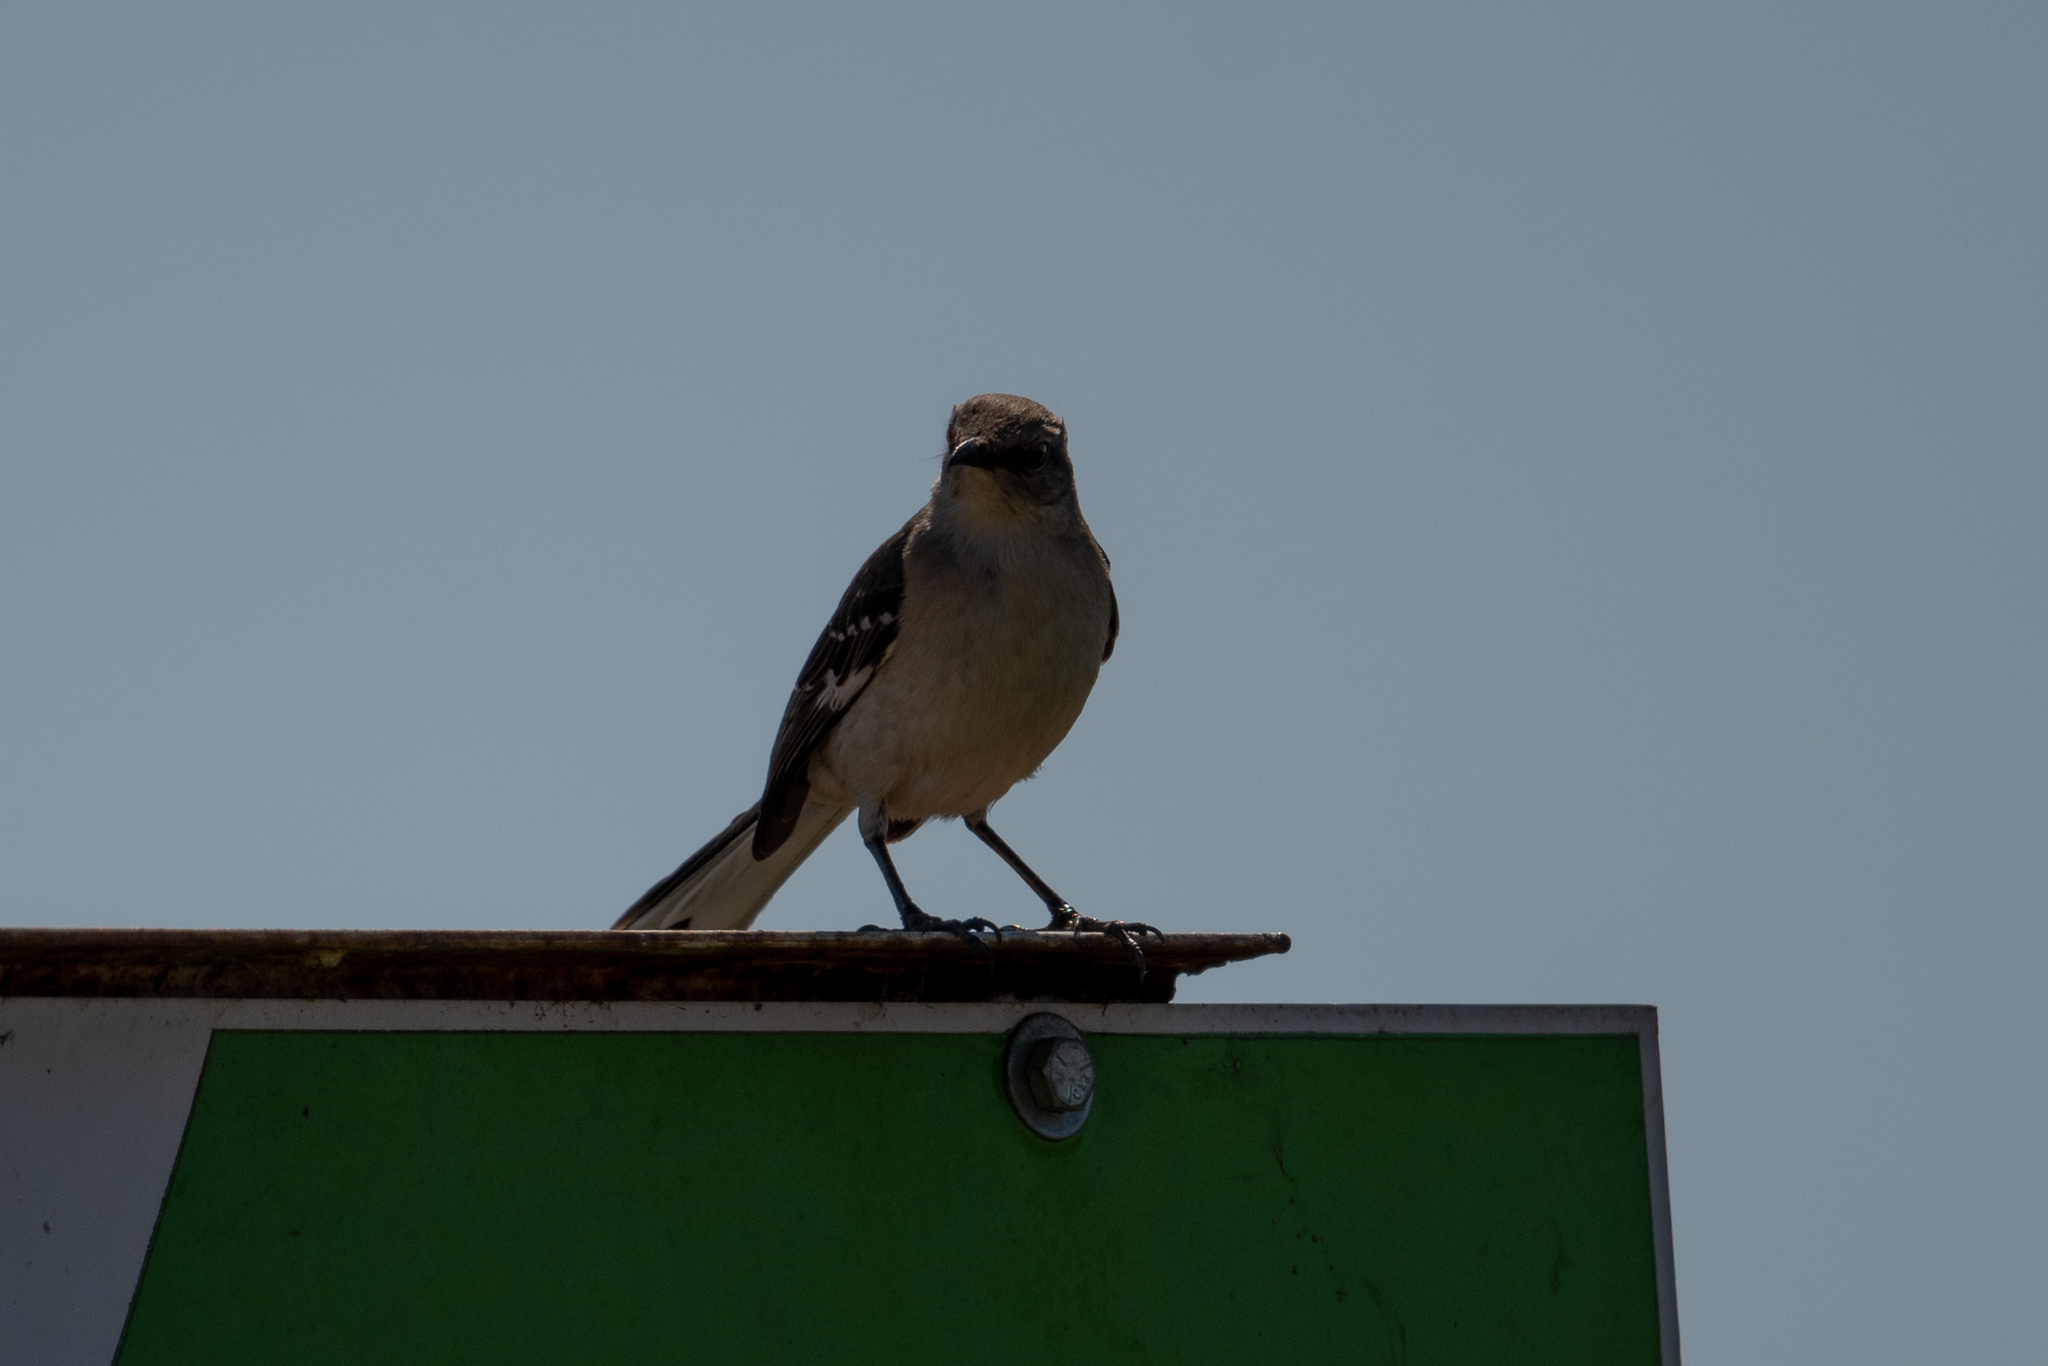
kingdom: Animalia
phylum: Chordata
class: Aves
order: Passeriformes
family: Mimidae
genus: Mimus
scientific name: Mimus polyglottos
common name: Northern mockingbird
